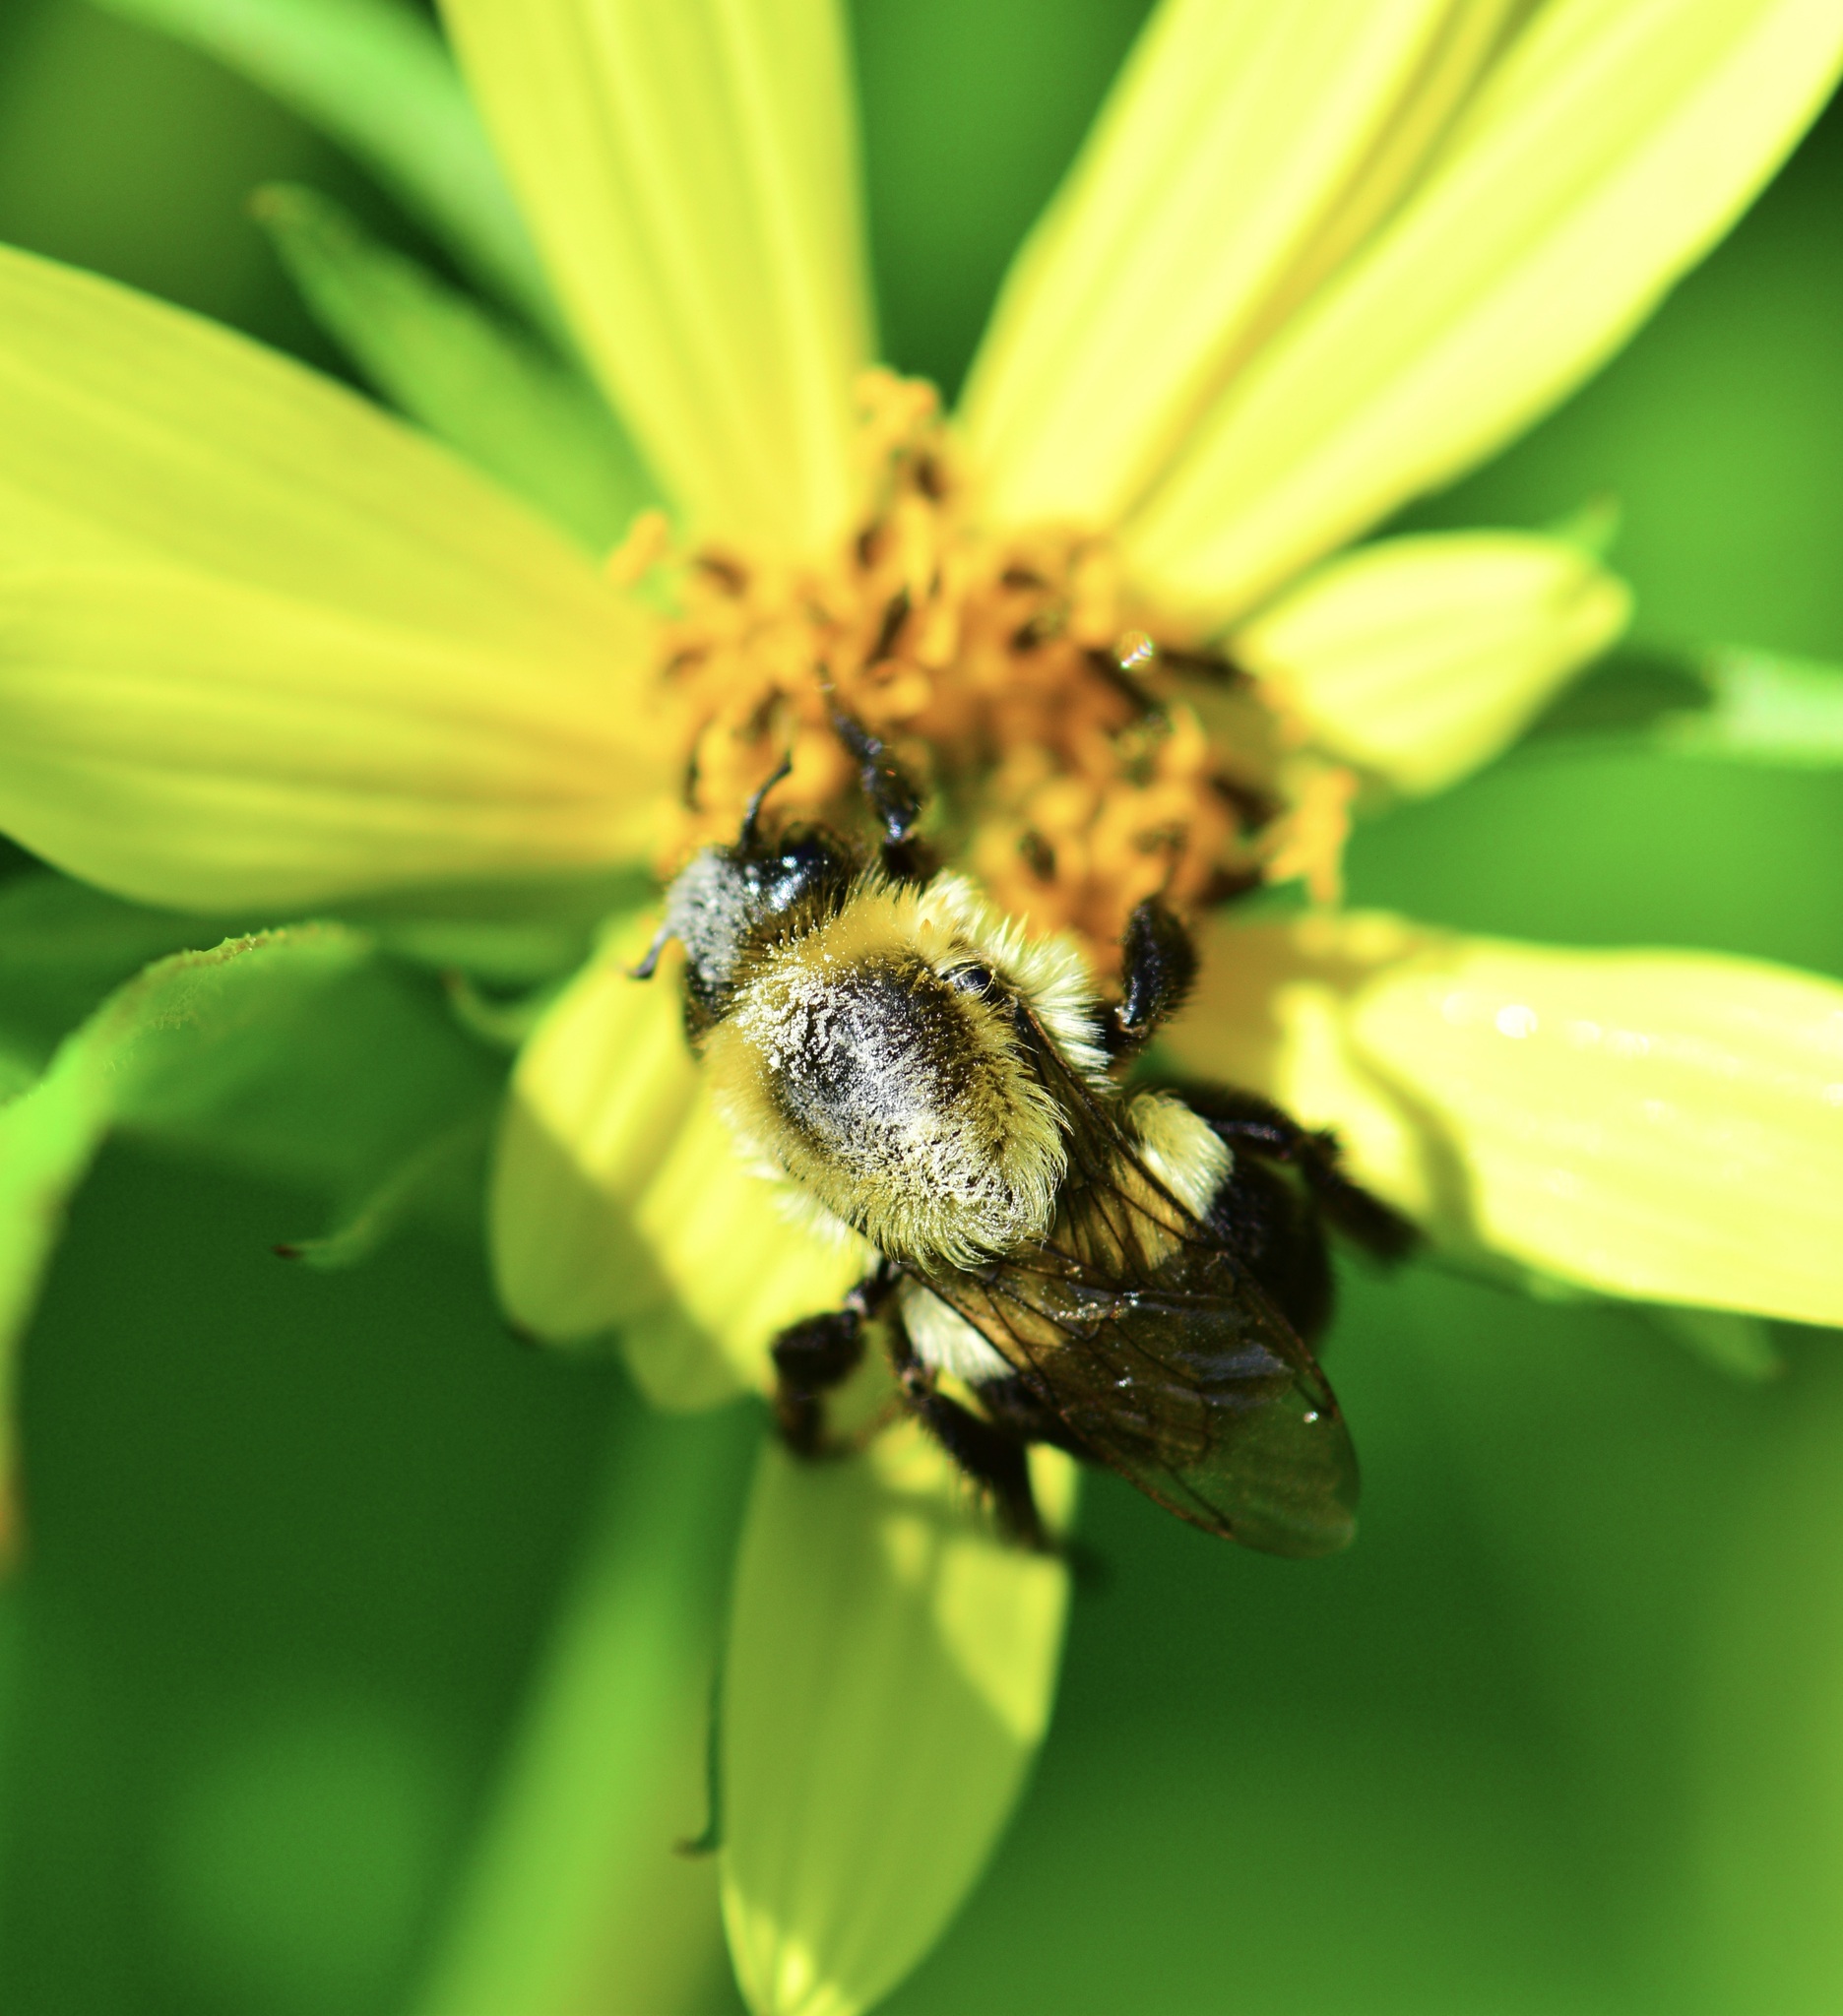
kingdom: Animalia
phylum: Arthropoda
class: Insecta
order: Hymenoptera
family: Apidae
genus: Bombus
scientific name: Bombus impatiens
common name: Common eastern bumble bee
